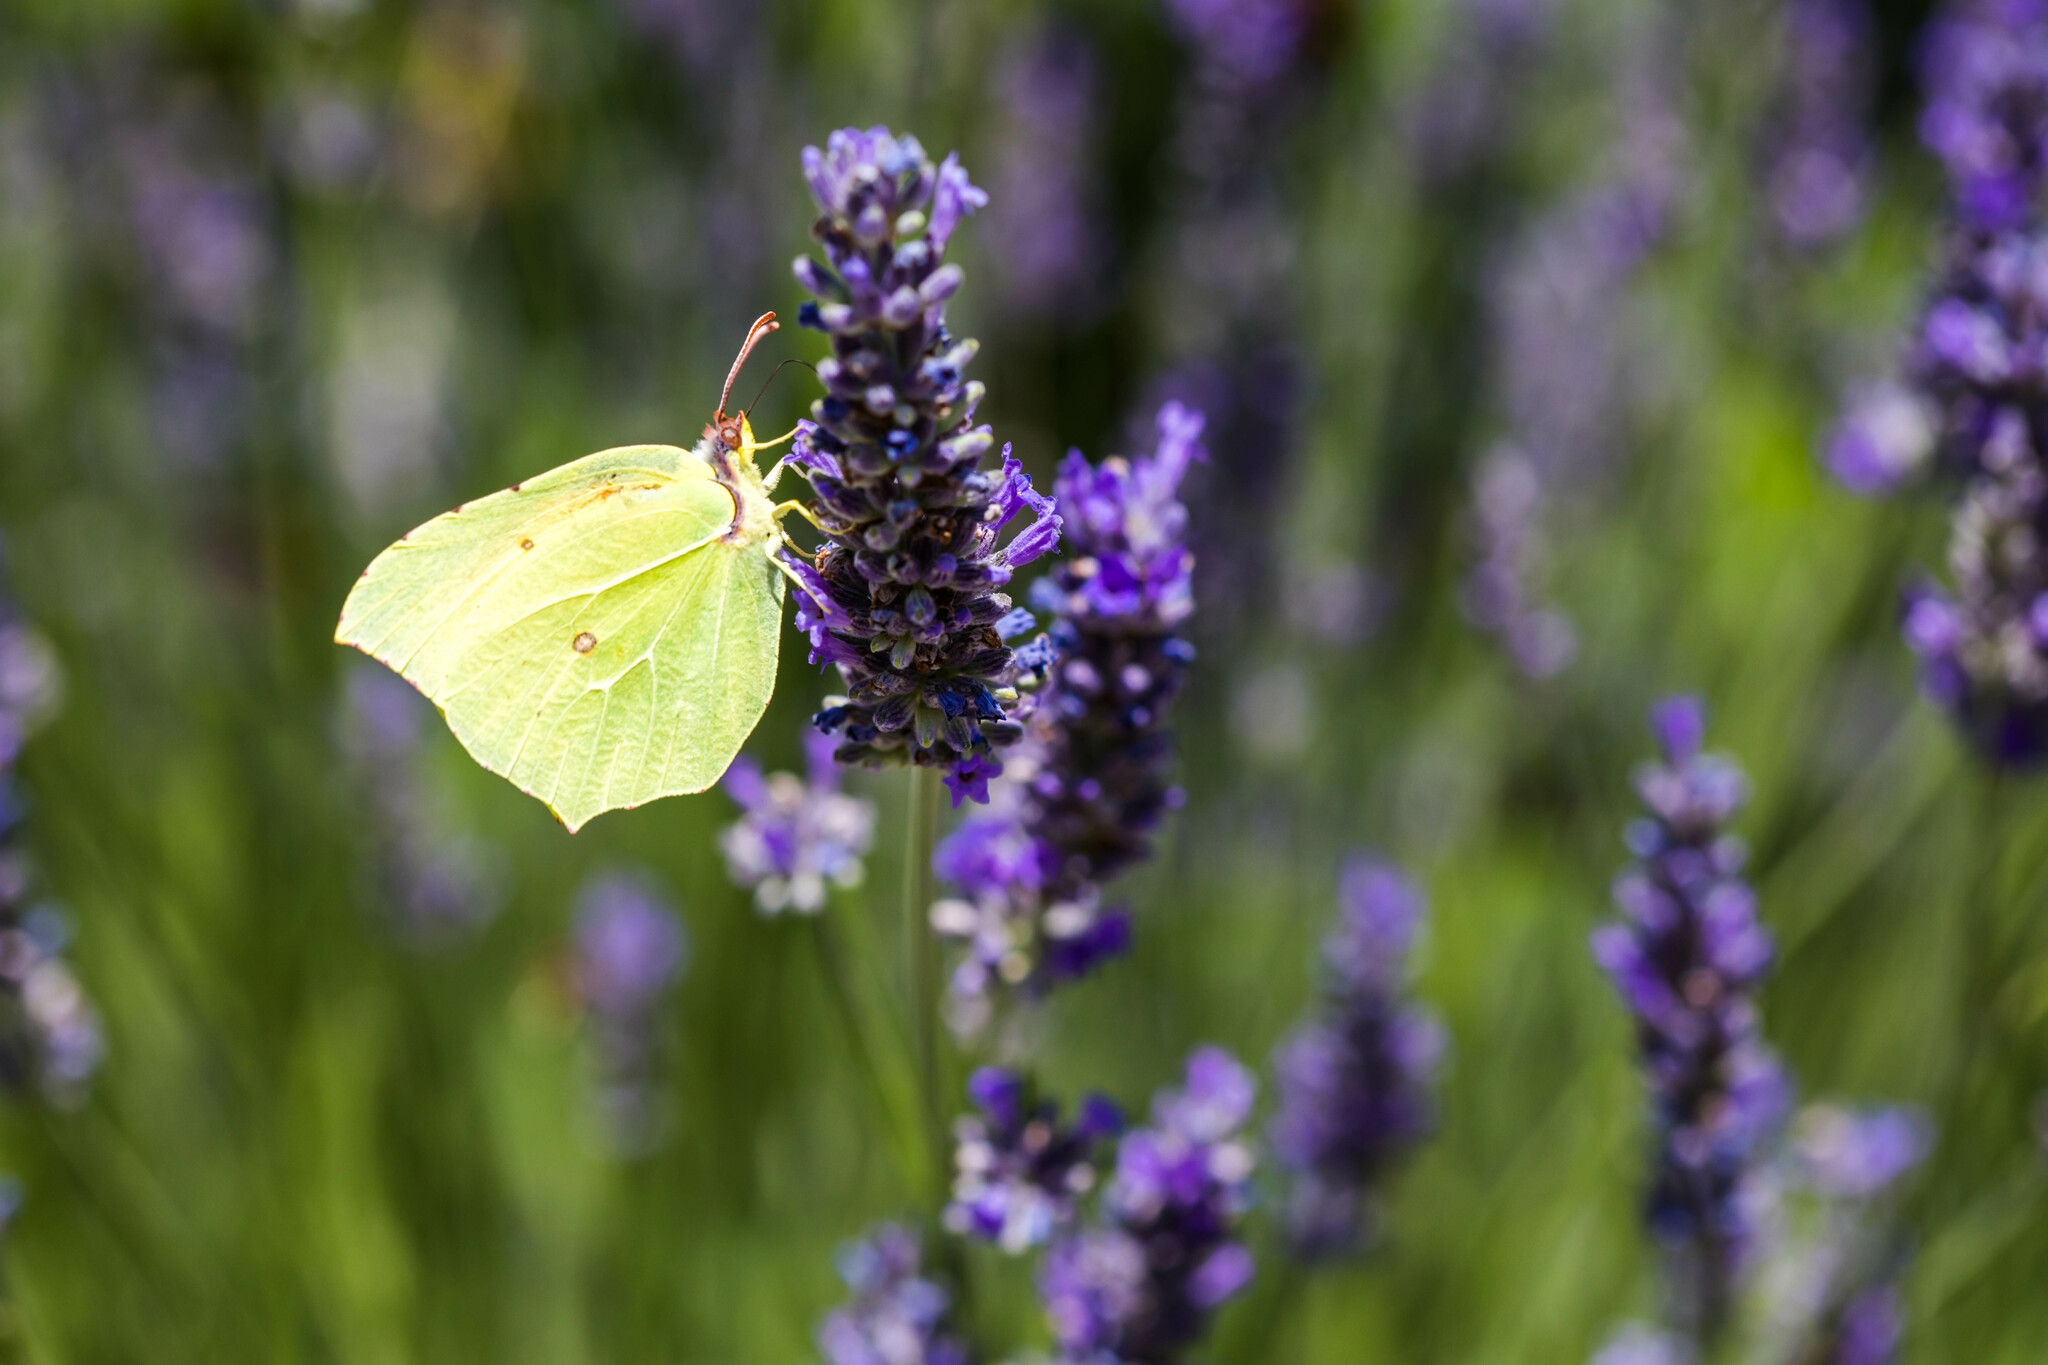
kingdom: Animalia
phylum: Arthropoda
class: Insecta
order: Lepidoptera
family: Pieridae
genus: Gonepteryx
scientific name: Gonepteryx cleopatra
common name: Cleopatra
